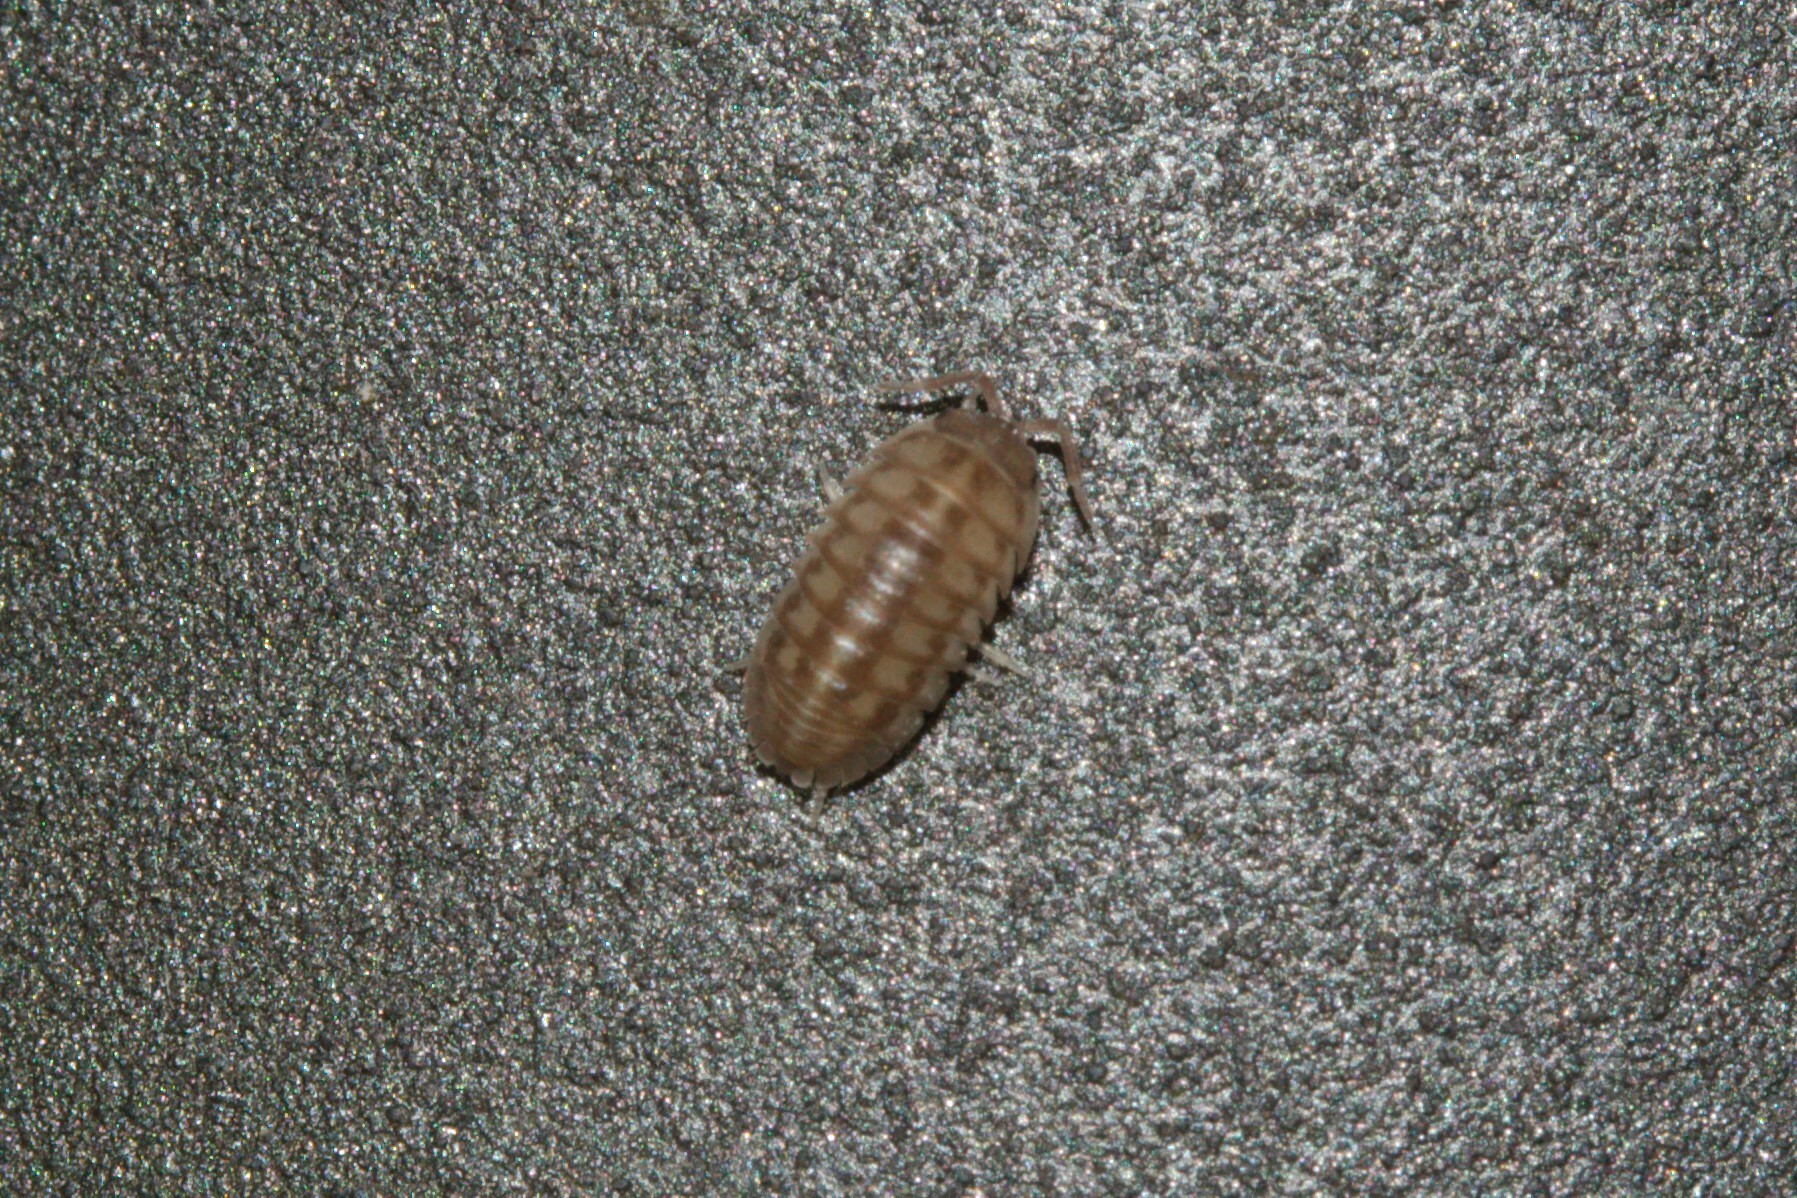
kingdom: Animalia
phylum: Arthropoda
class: Malacostraca
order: Isopoda
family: Armadillidiidae
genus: Armadillidium
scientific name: Armadillidium nasatum
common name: Isopod
